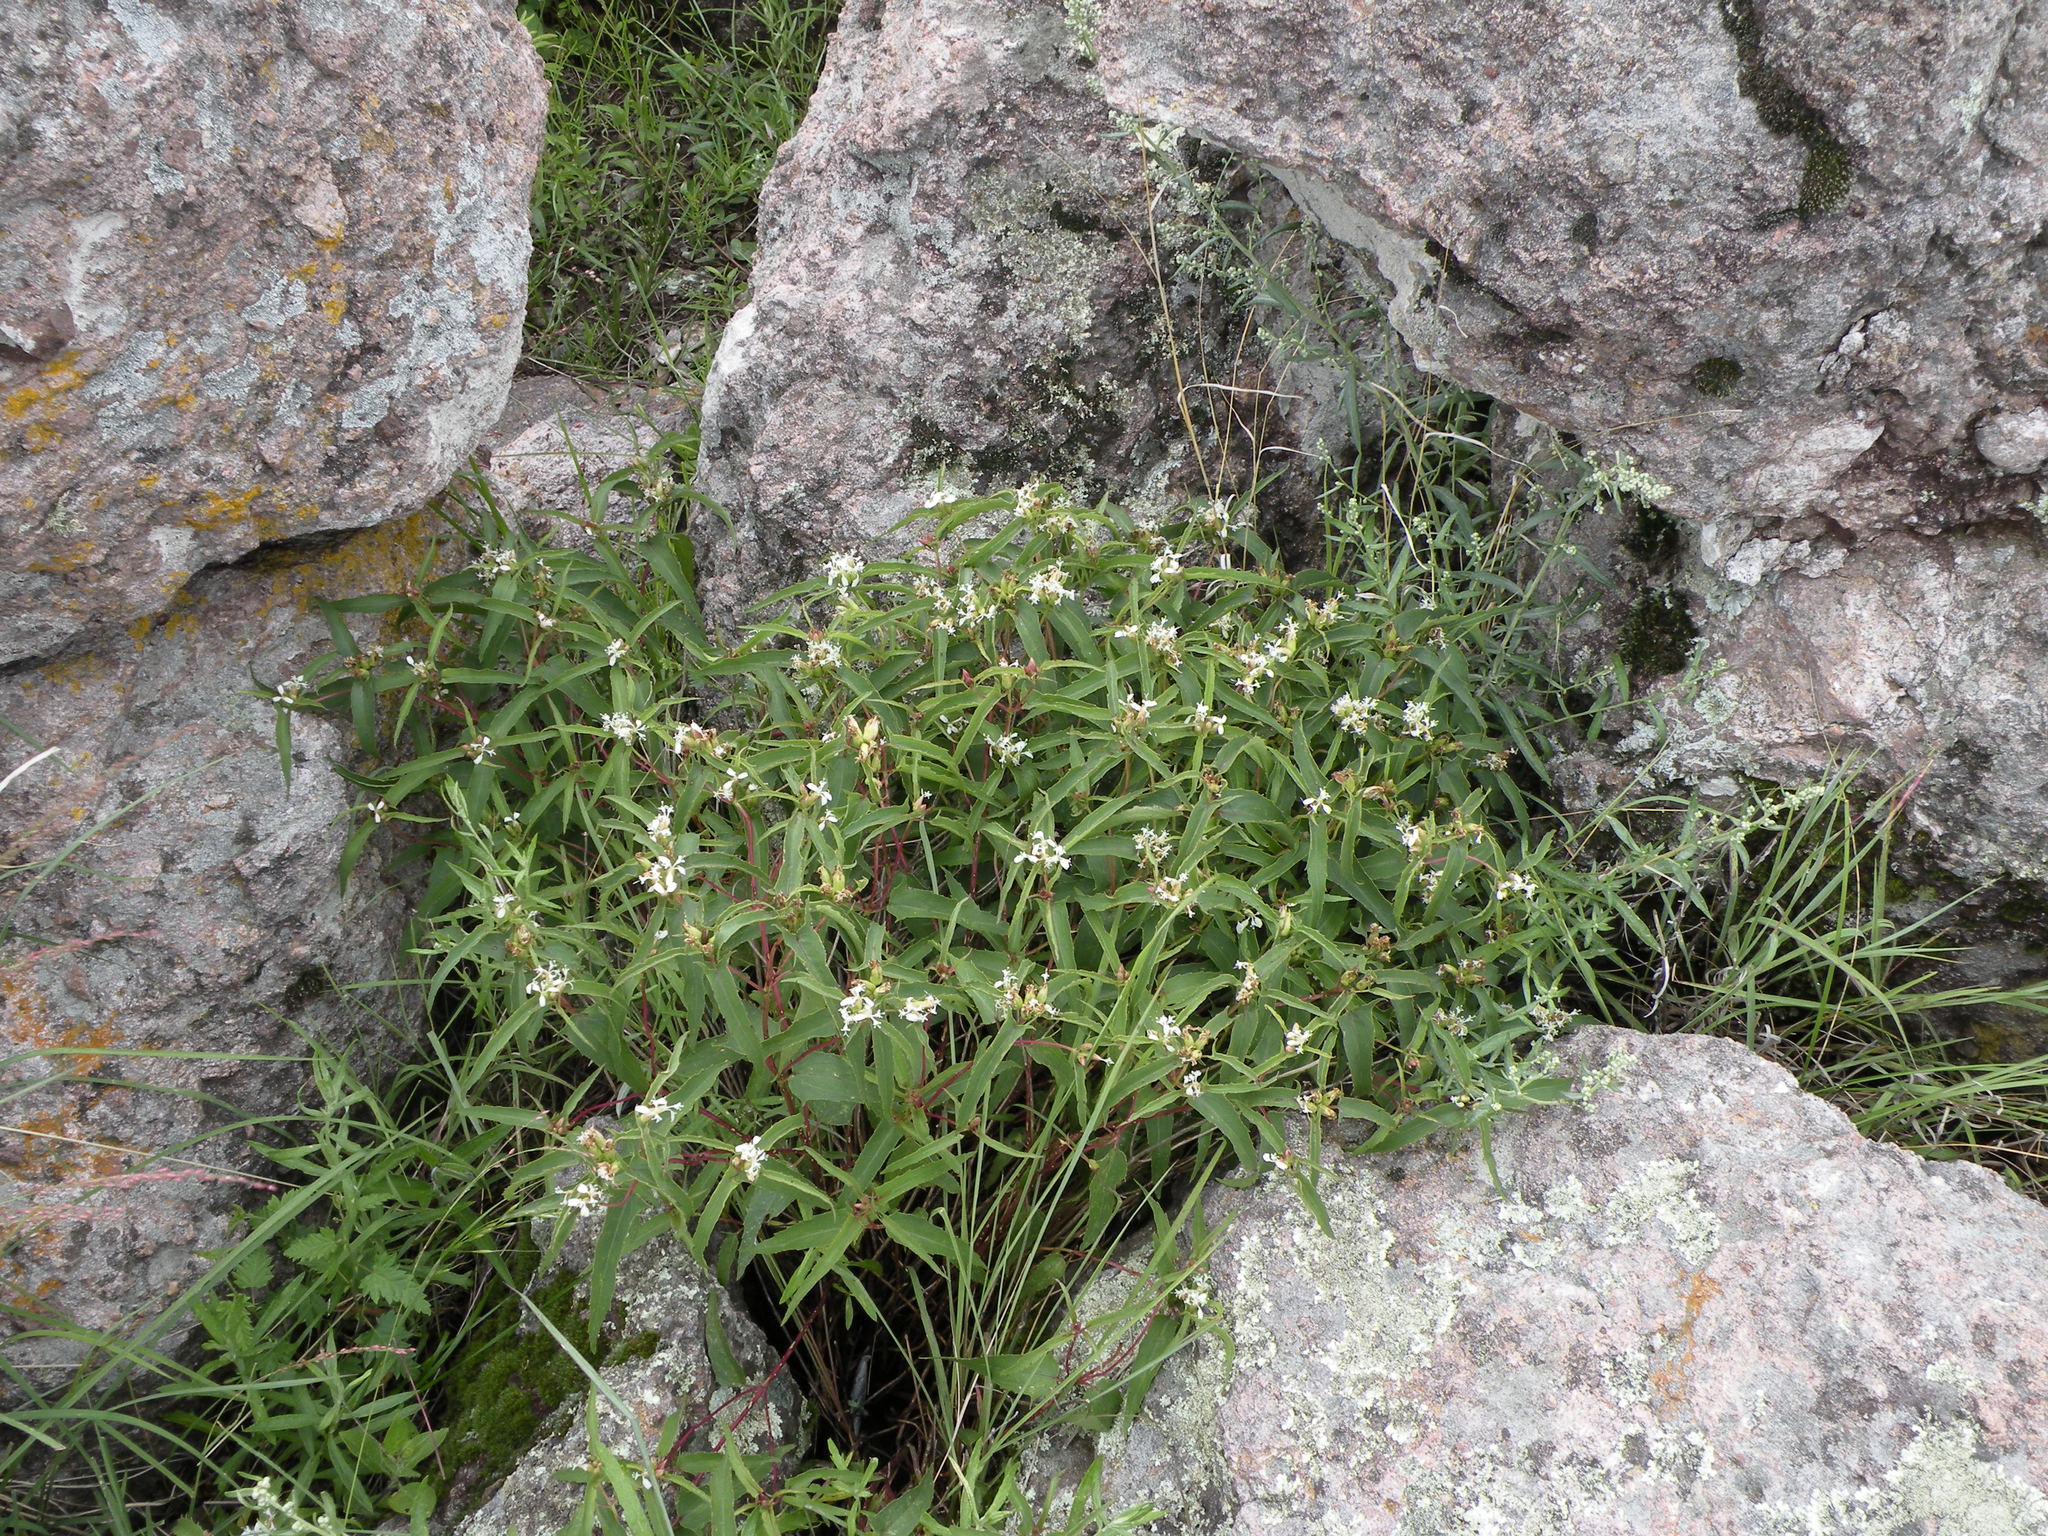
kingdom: Plantae
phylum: Tracheophyta
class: Magnoliopsida
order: Asterales
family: Asteraceae
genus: Guardiola
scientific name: Guardiola arguta
